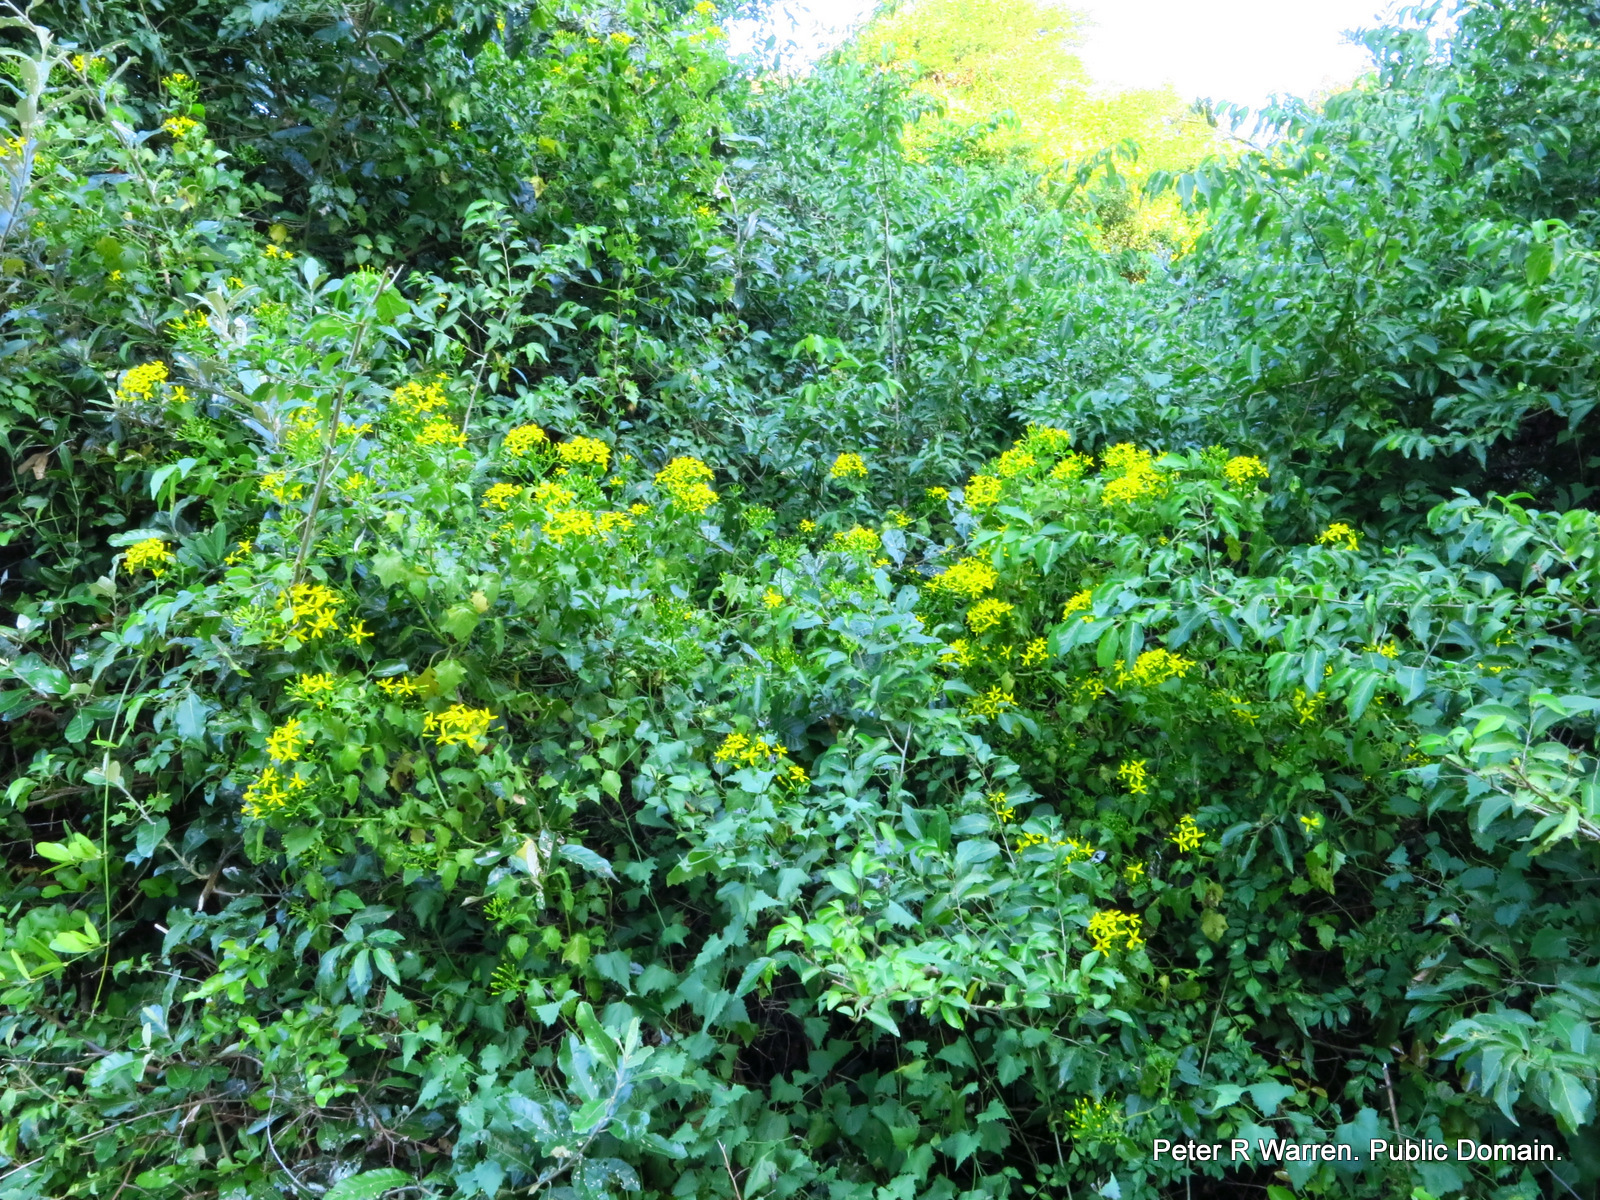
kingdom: Plantae
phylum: Tracheophyta
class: Magnoliopsida
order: Asterales
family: Asteraceae
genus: Senecio
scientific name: Senecio tamoides
